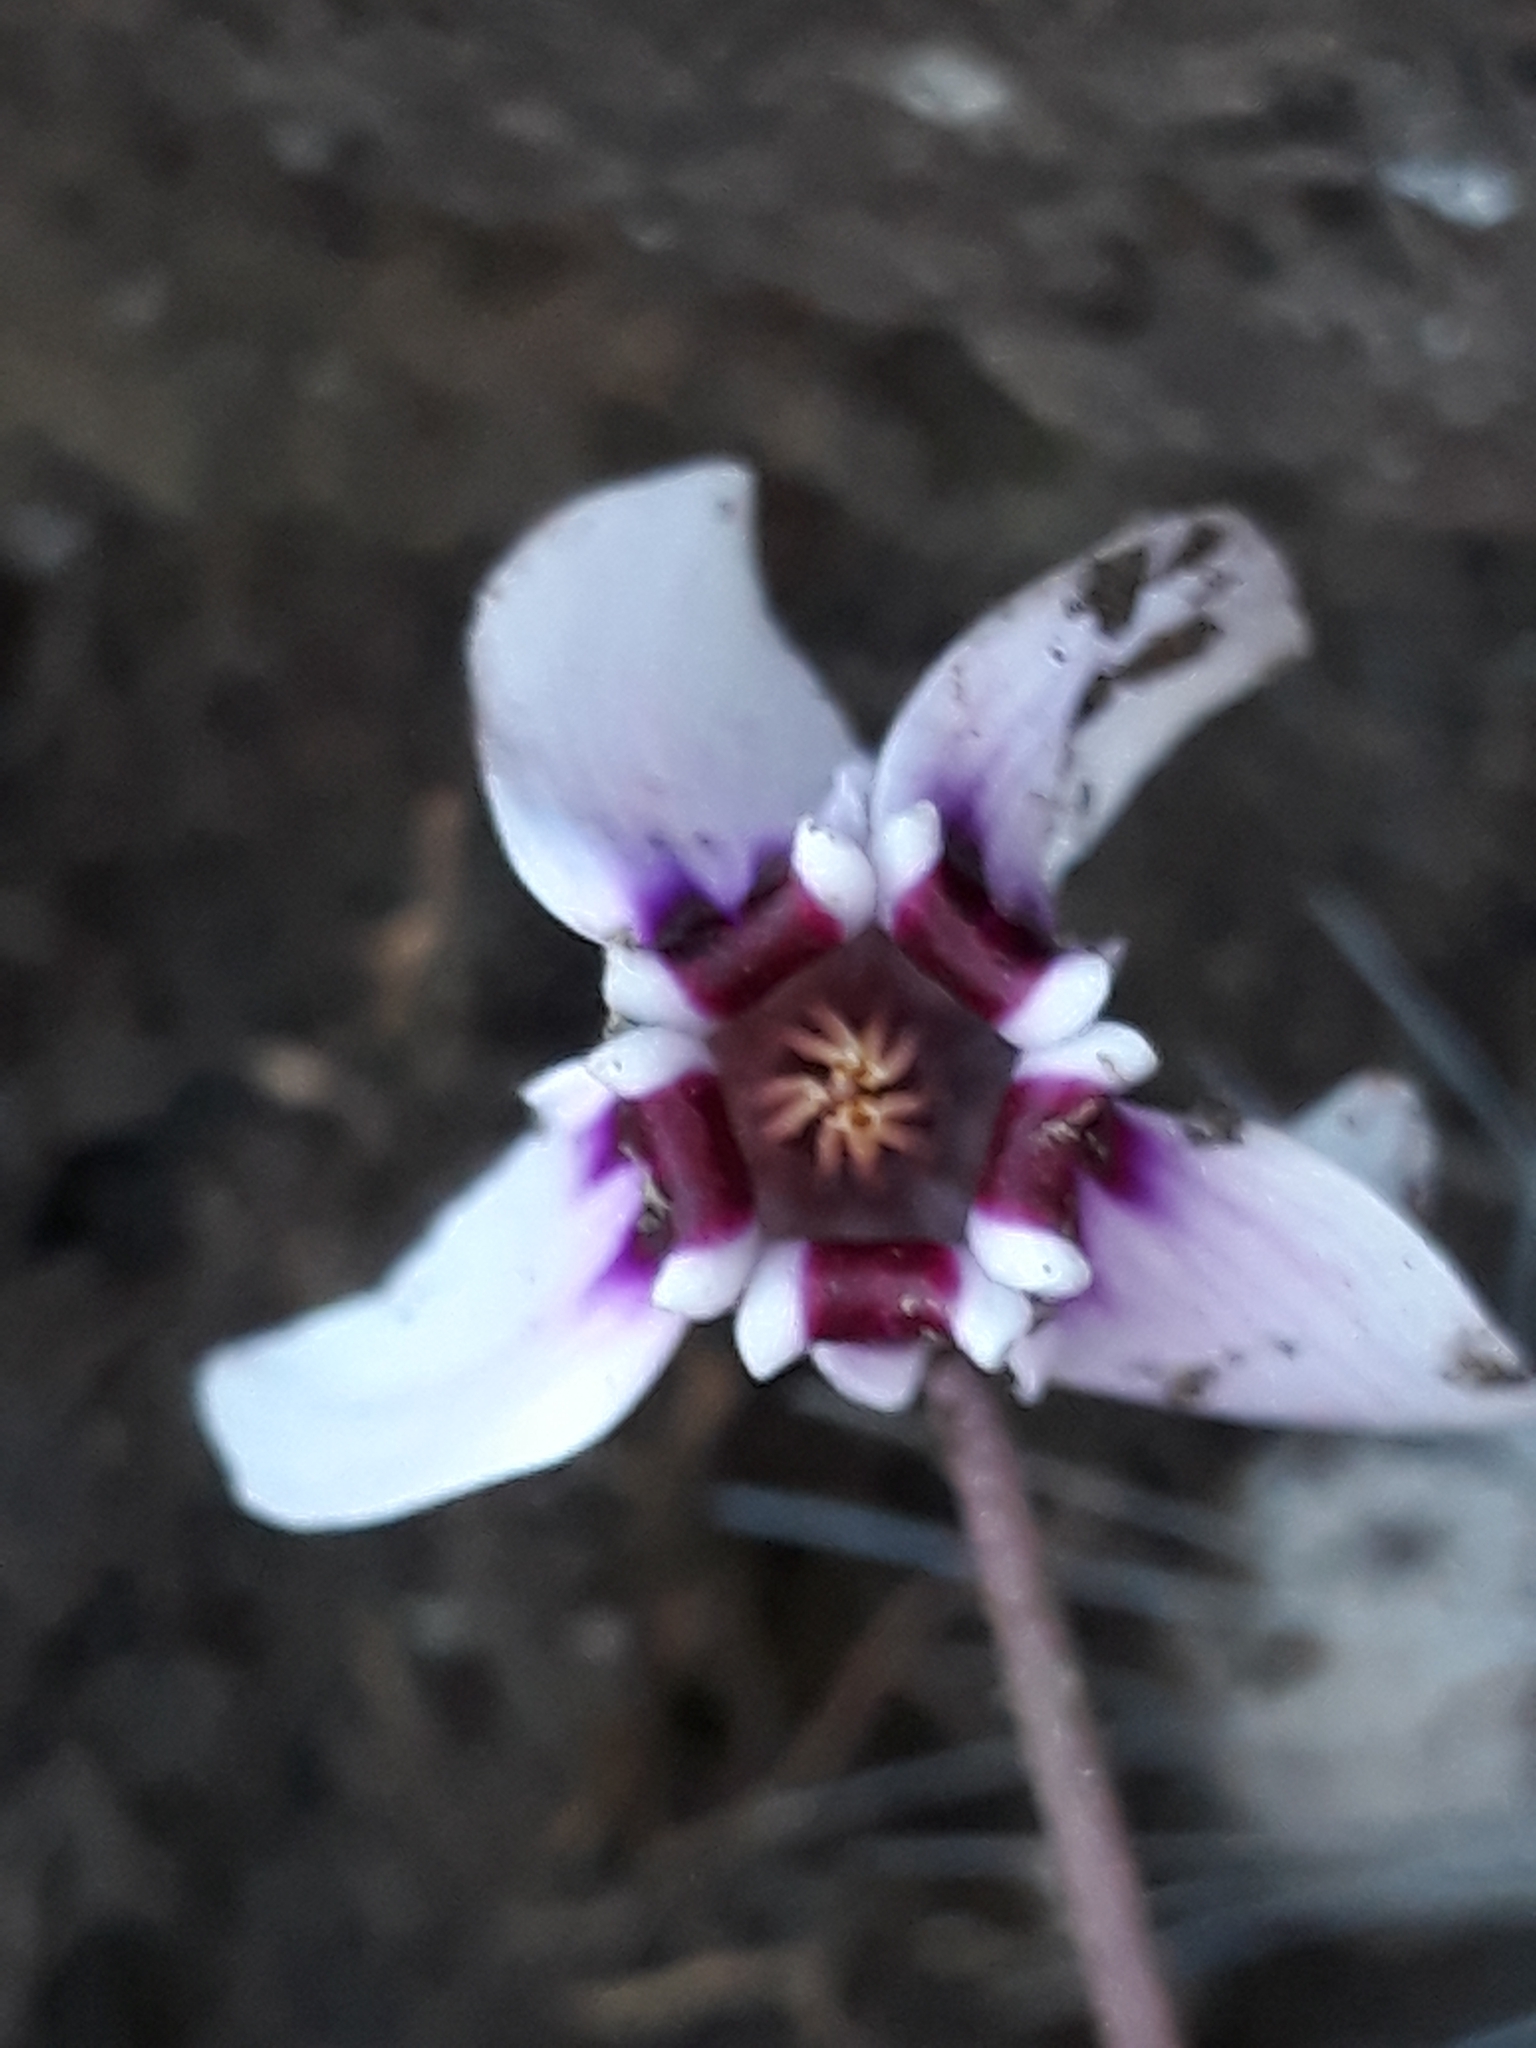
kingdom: Plantae
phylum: Tracheophyta
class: Magnoliopsida
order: Ericales
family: Primulaceae
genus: Cyclamen
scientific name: Cyclamen africanum
